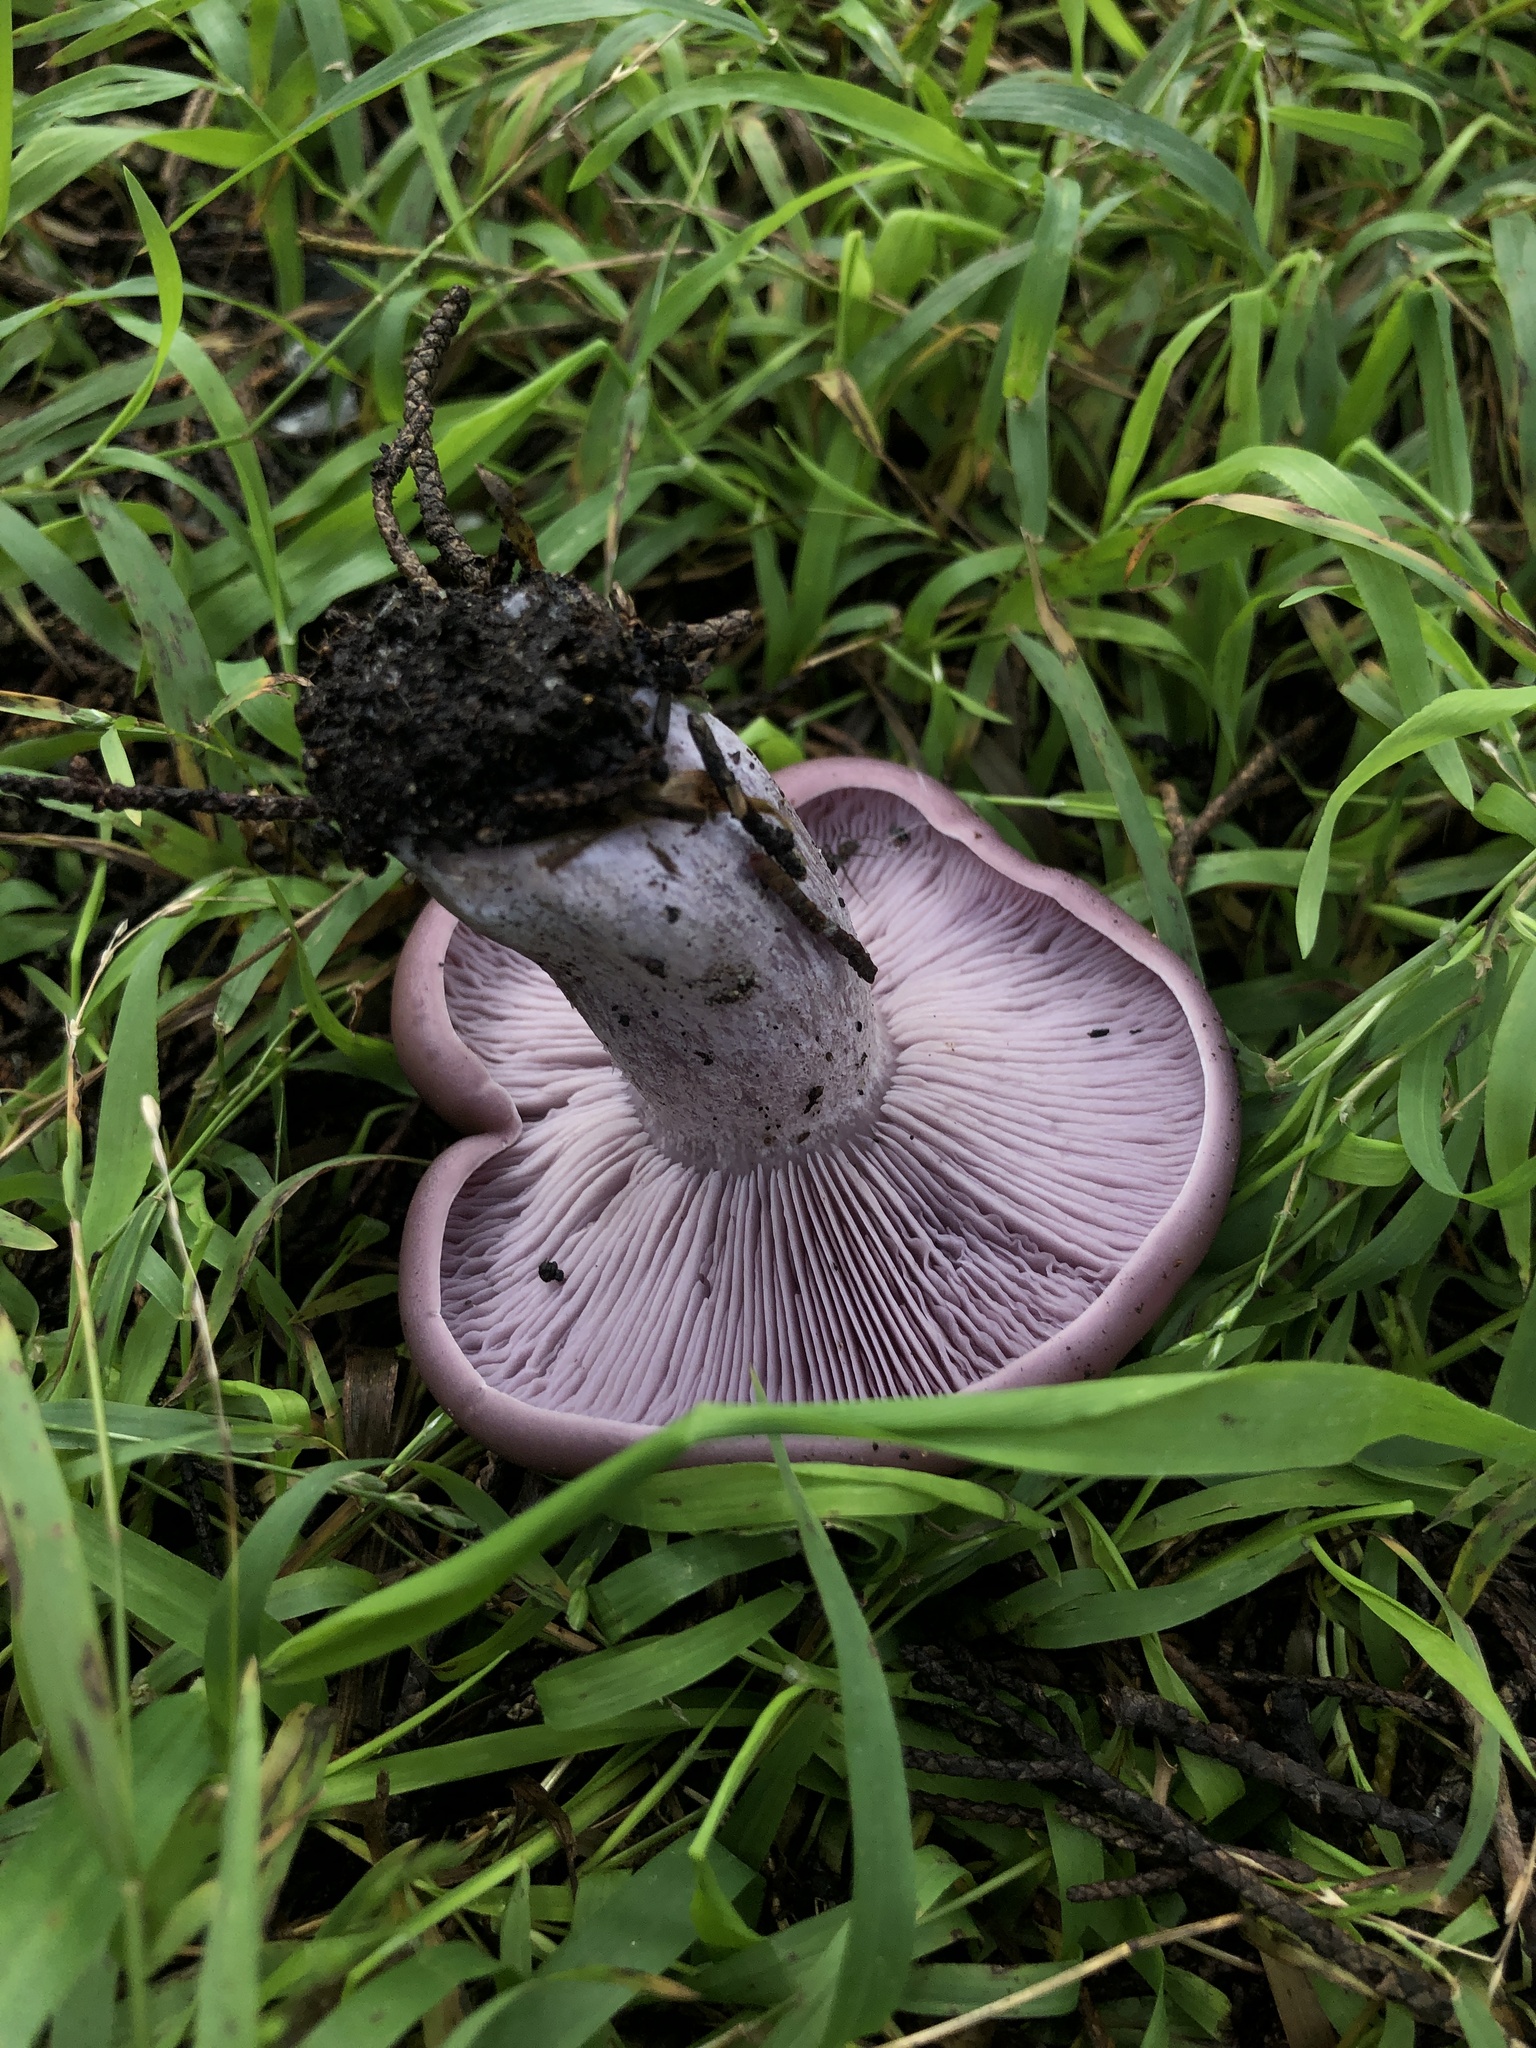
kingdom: Fungi
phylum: Basidiomycota
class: Agaricomycetes
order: Agaricales
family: Tricholomataceae
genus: Clitocybe
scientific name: Clitocybe violaceifolia
